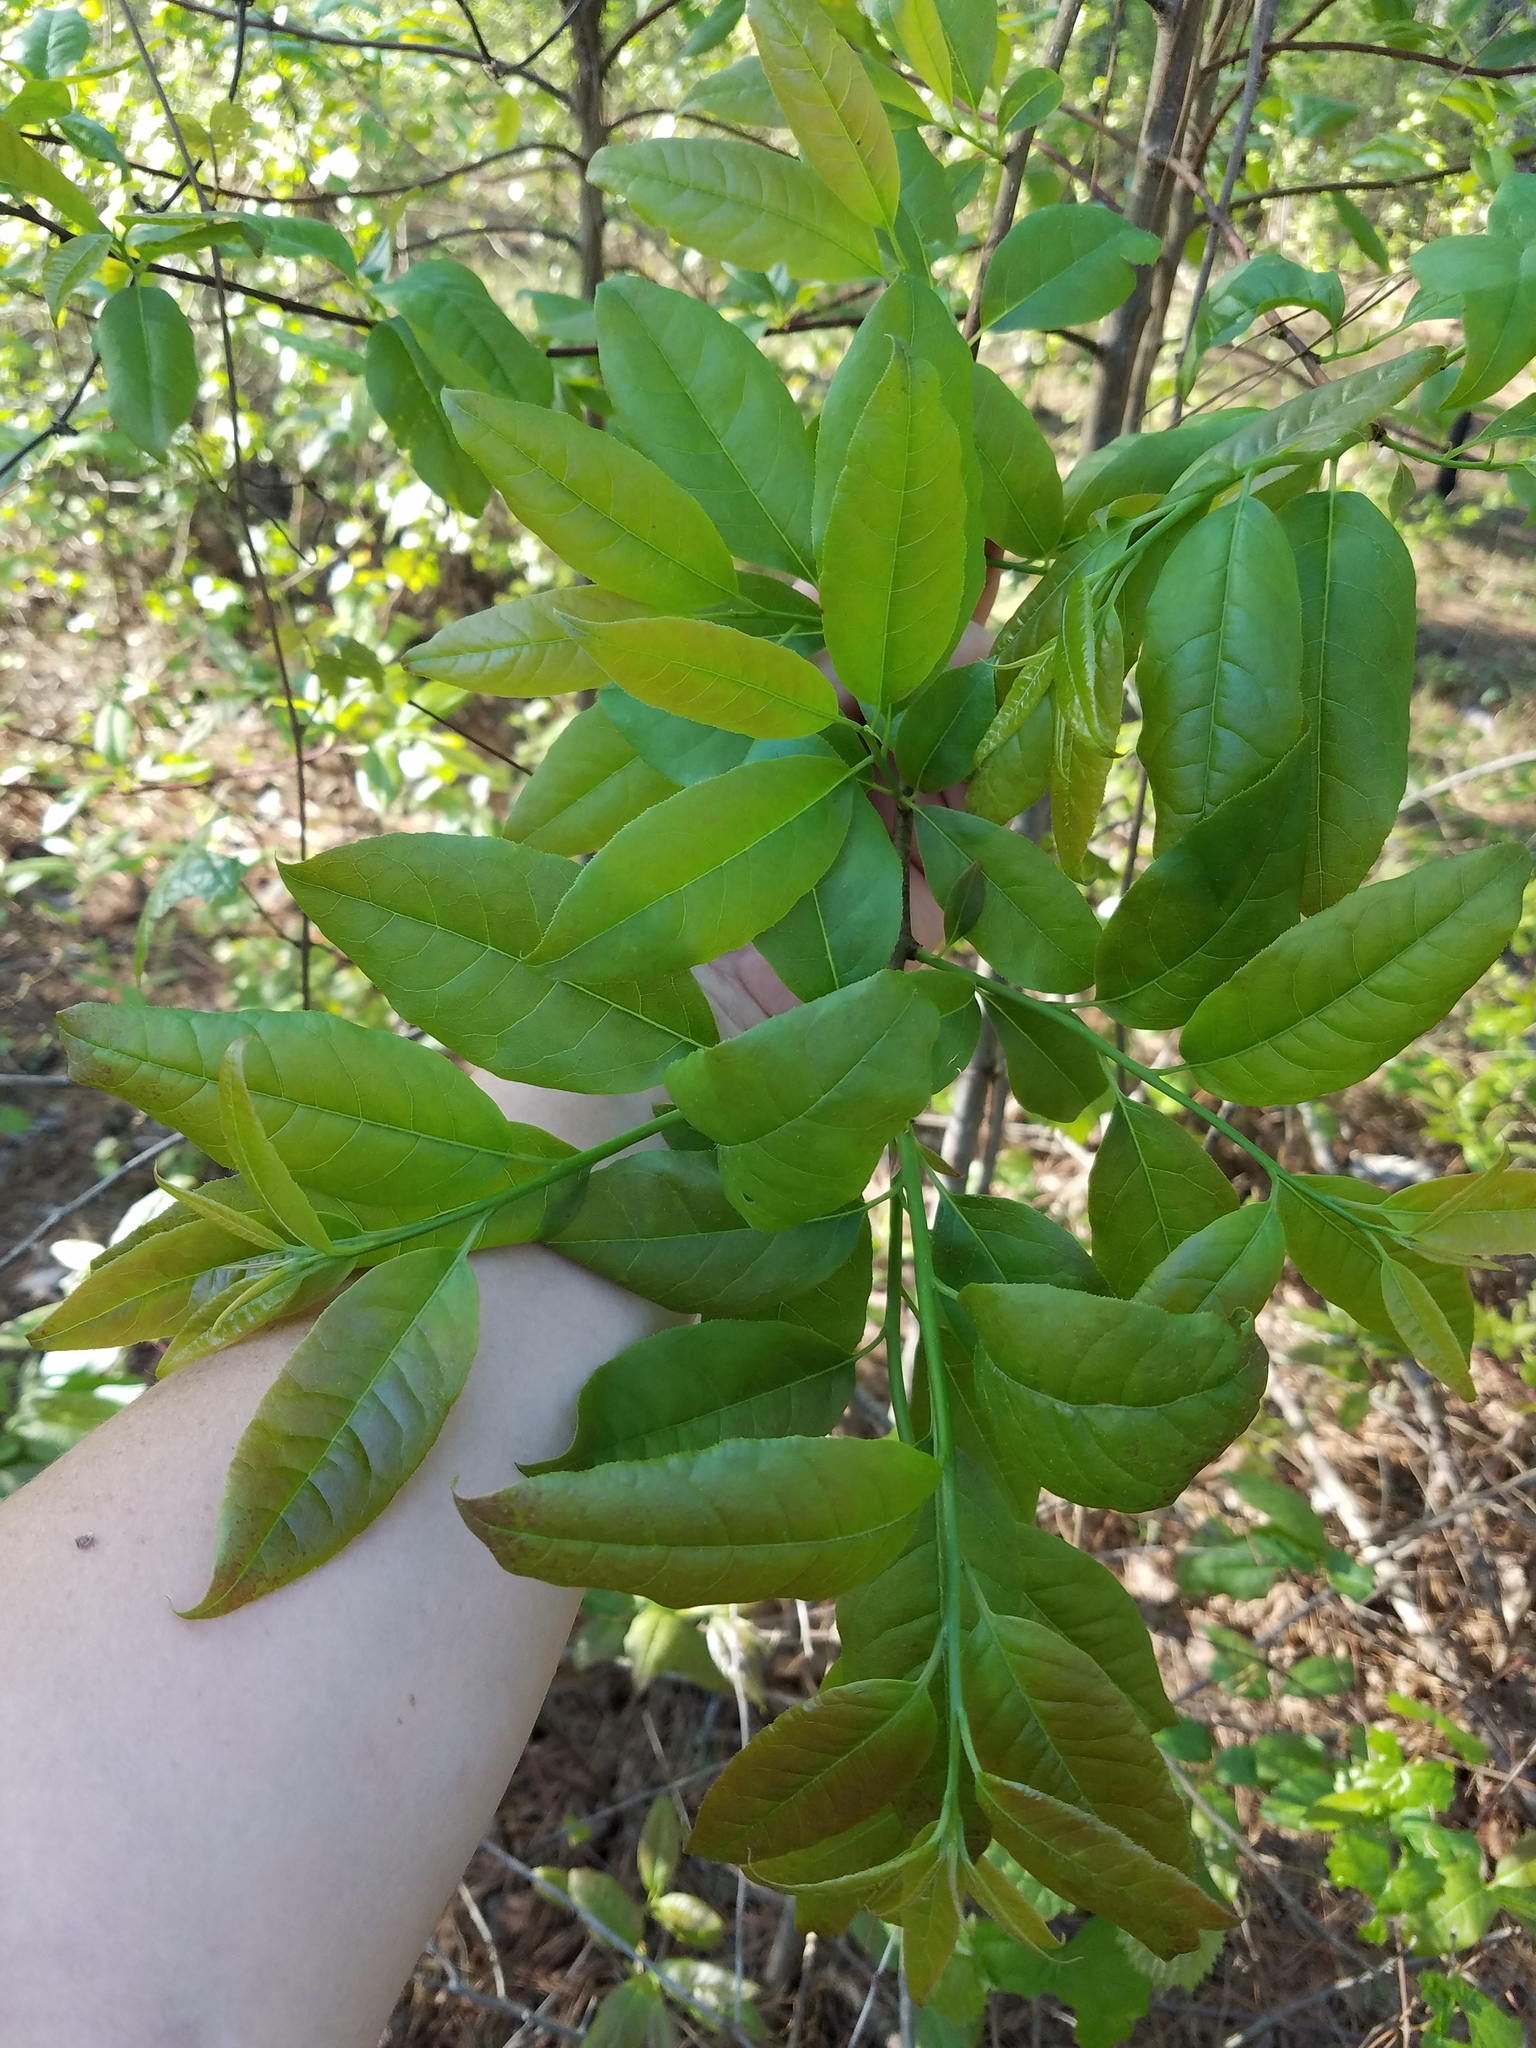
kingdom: Plantae
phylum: Tracheophyta
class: Magnoliopsida
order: Ericales
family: Ericaceae
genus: Oxydendrum
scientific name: Oxydendrum arboreum
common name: Sourwood
